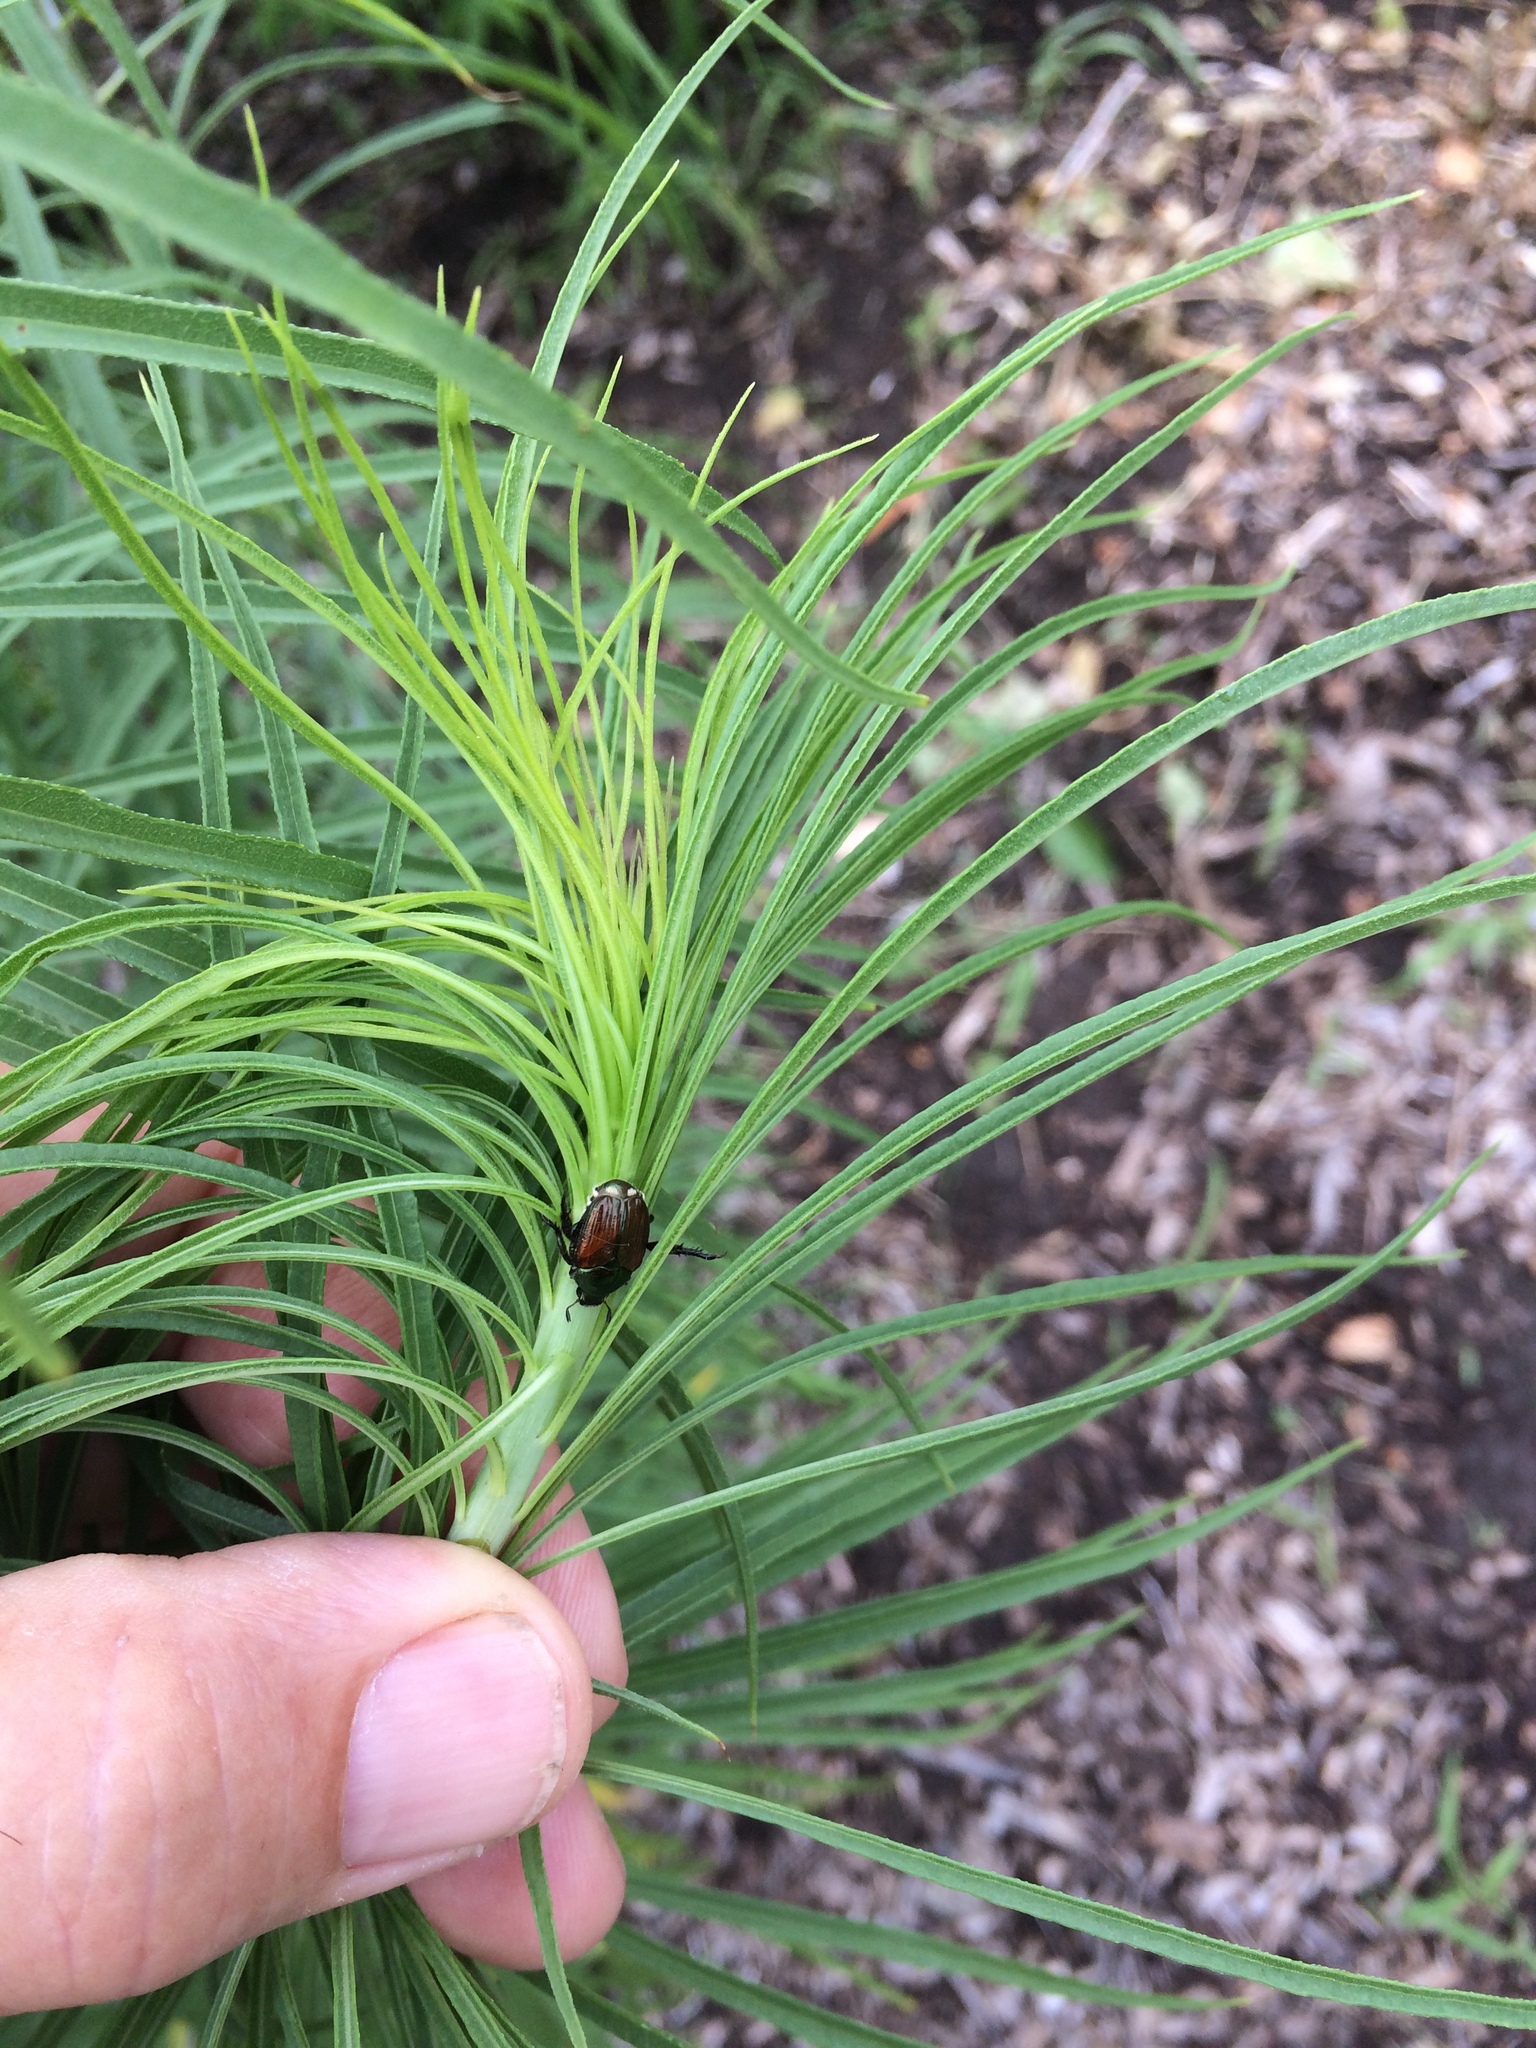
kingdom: Animalia
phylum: Arthropoda
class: Insecta
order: Coleoptera
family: Scarabaeidae
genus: Popillia
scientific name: Popillia japonica
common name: Japanese beetle
